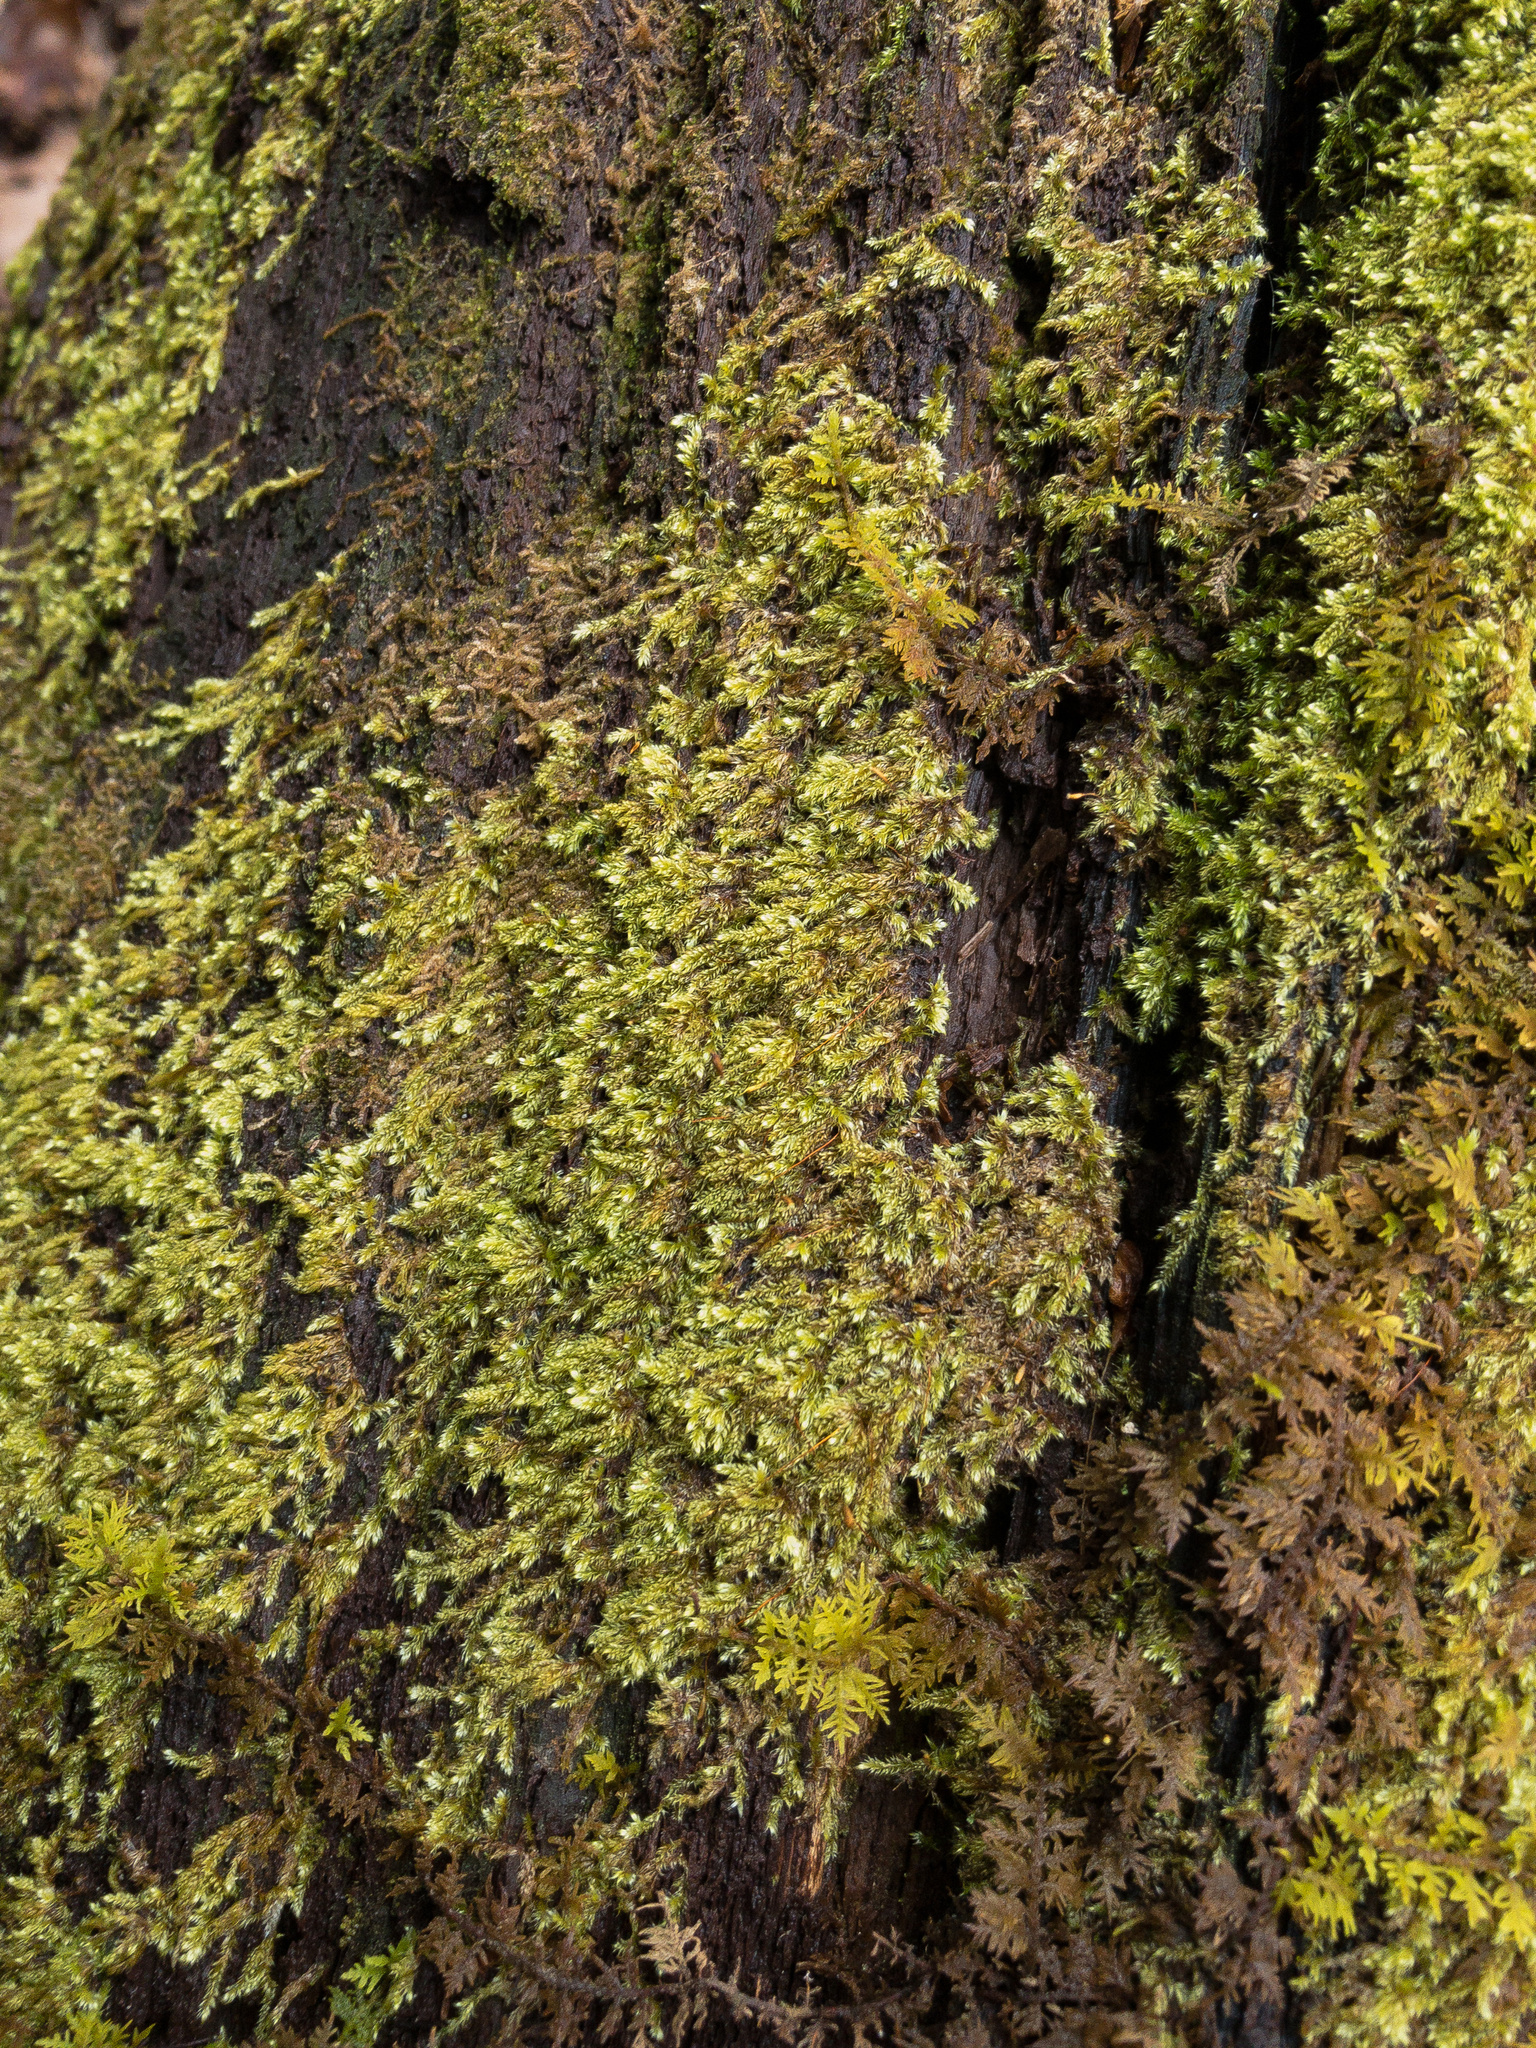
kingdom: Plantae
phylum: Bryophyta
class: Bryopsida
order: Hypnales
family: Pylaisiadelphaceae
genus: Brotherella
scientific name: Brotherella recurvans
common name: Recurved brotherella
